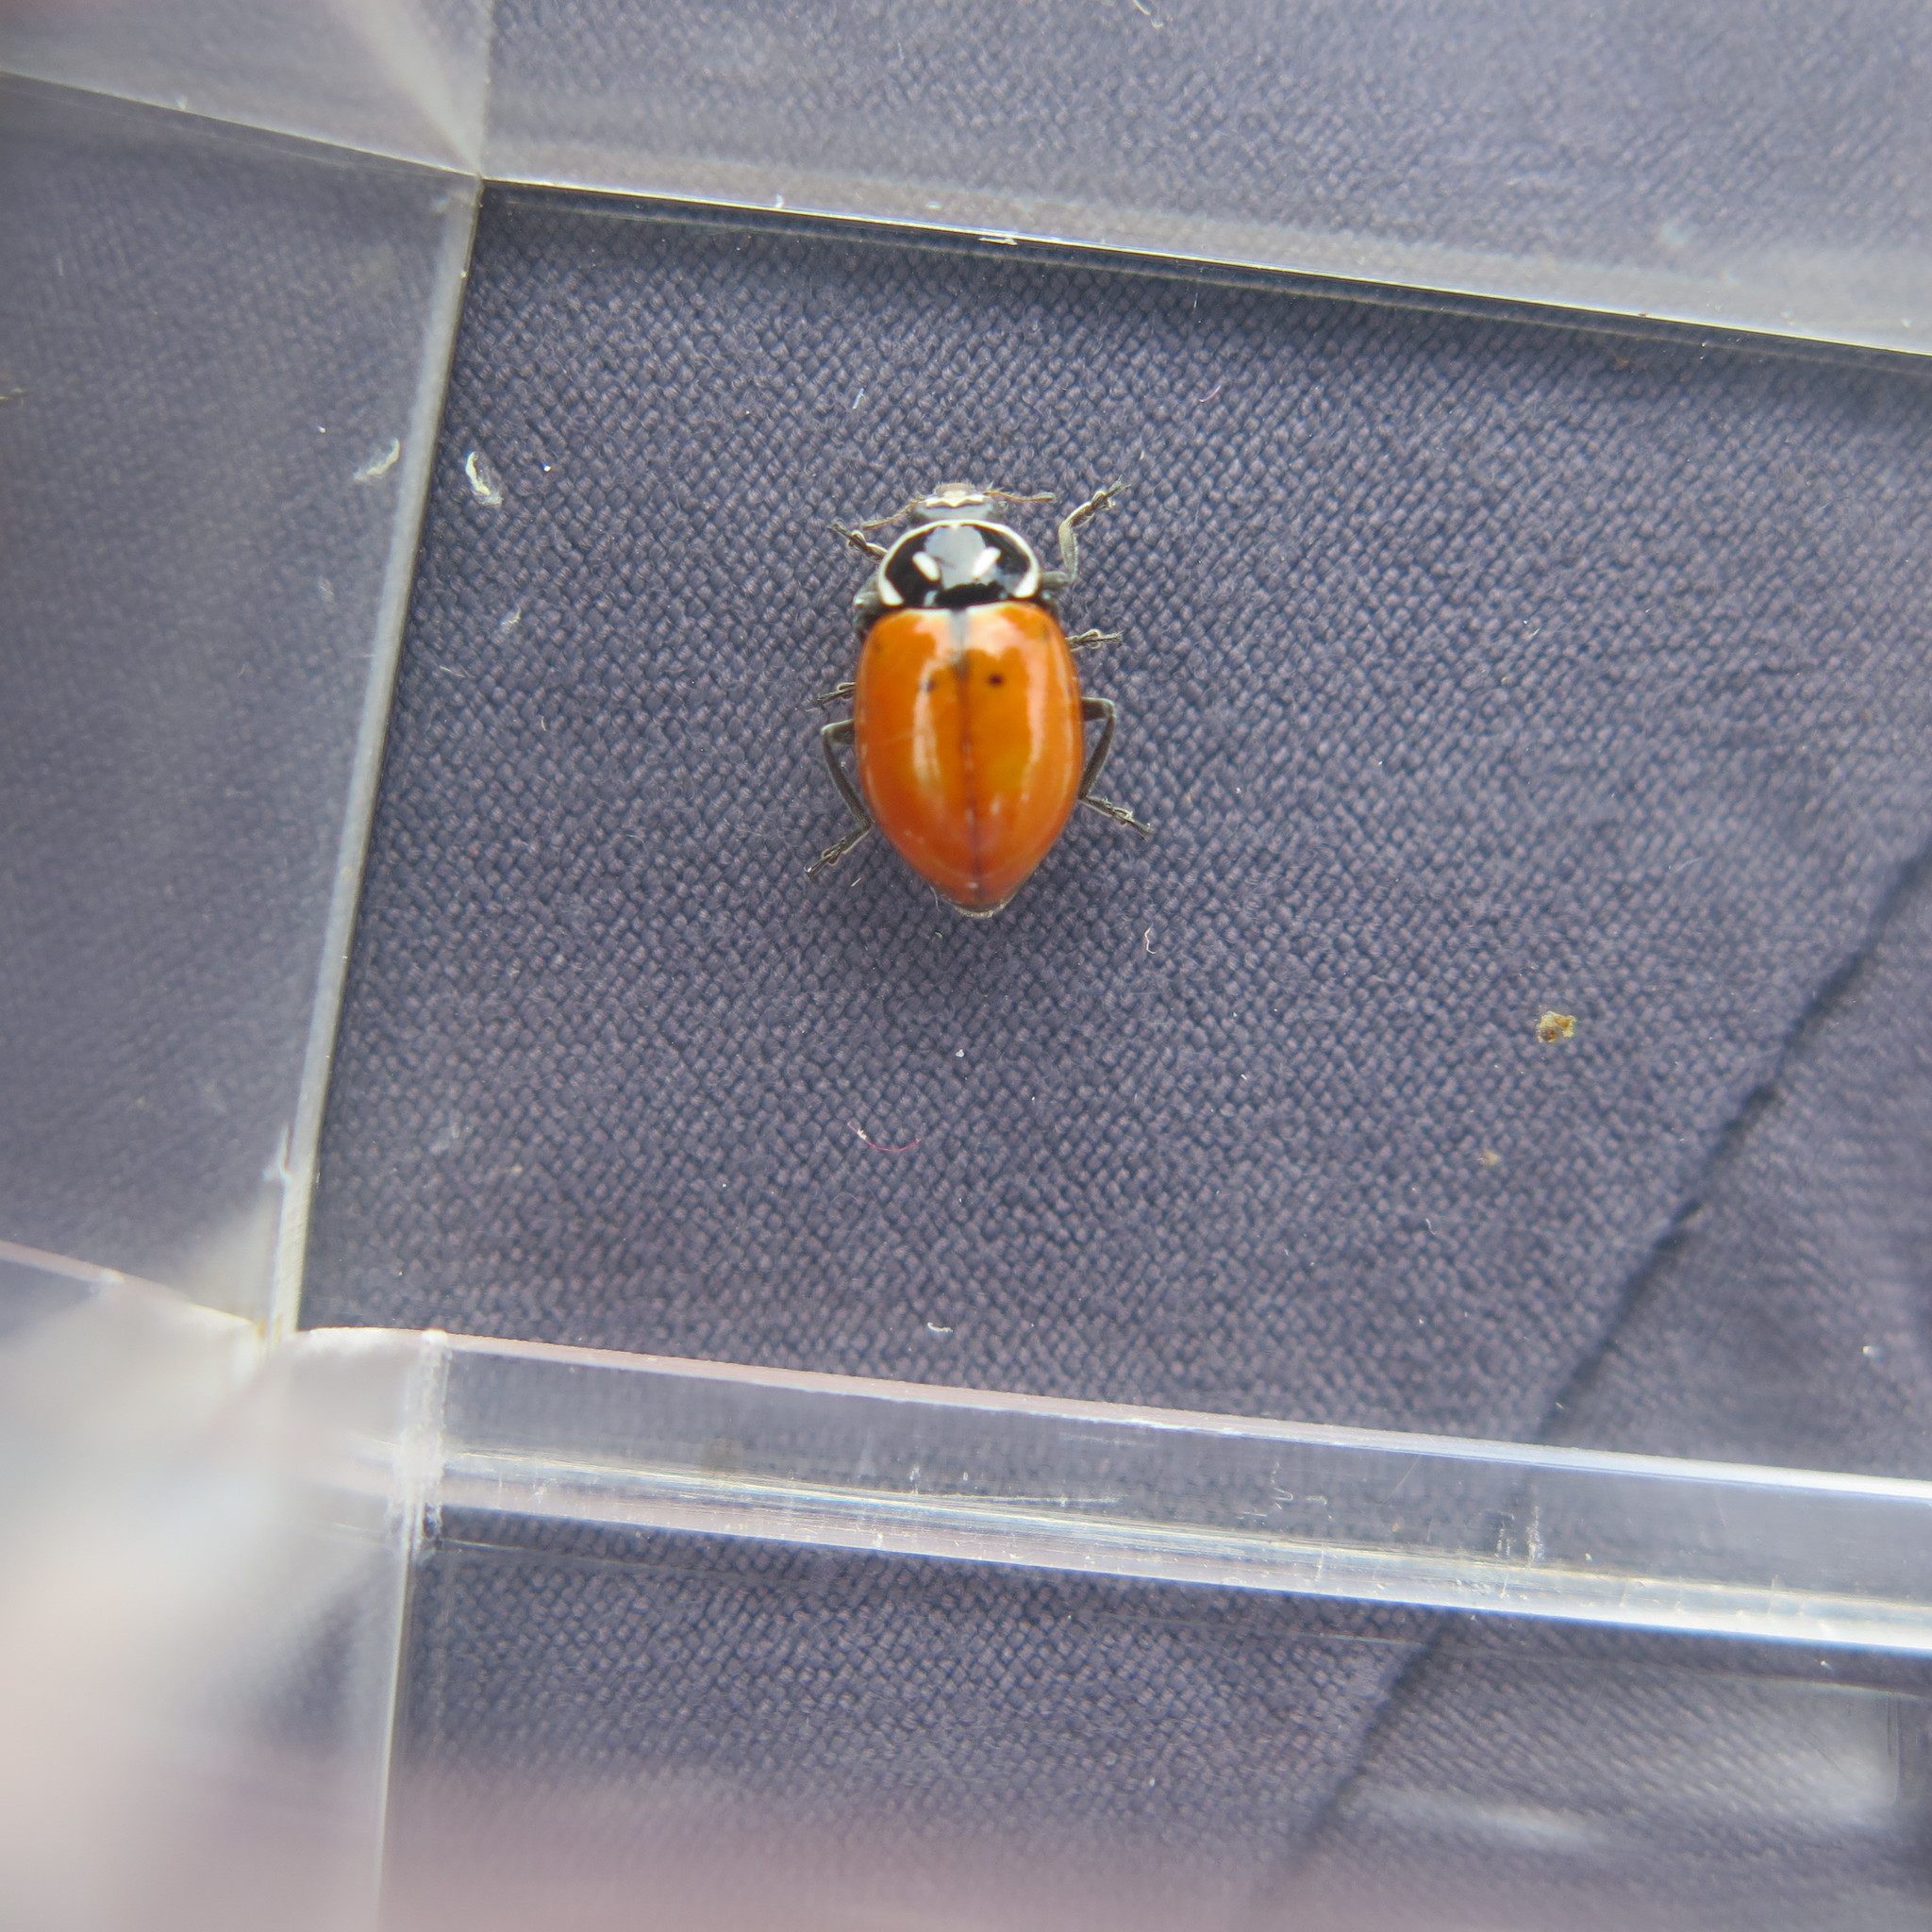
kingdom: Animalia
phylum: Arthropoda
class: Insecta
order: Coleoptera
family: Coccinellidae
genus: Hippodamia
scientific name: Hippodamia convergens
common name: Convergent lady beetle
